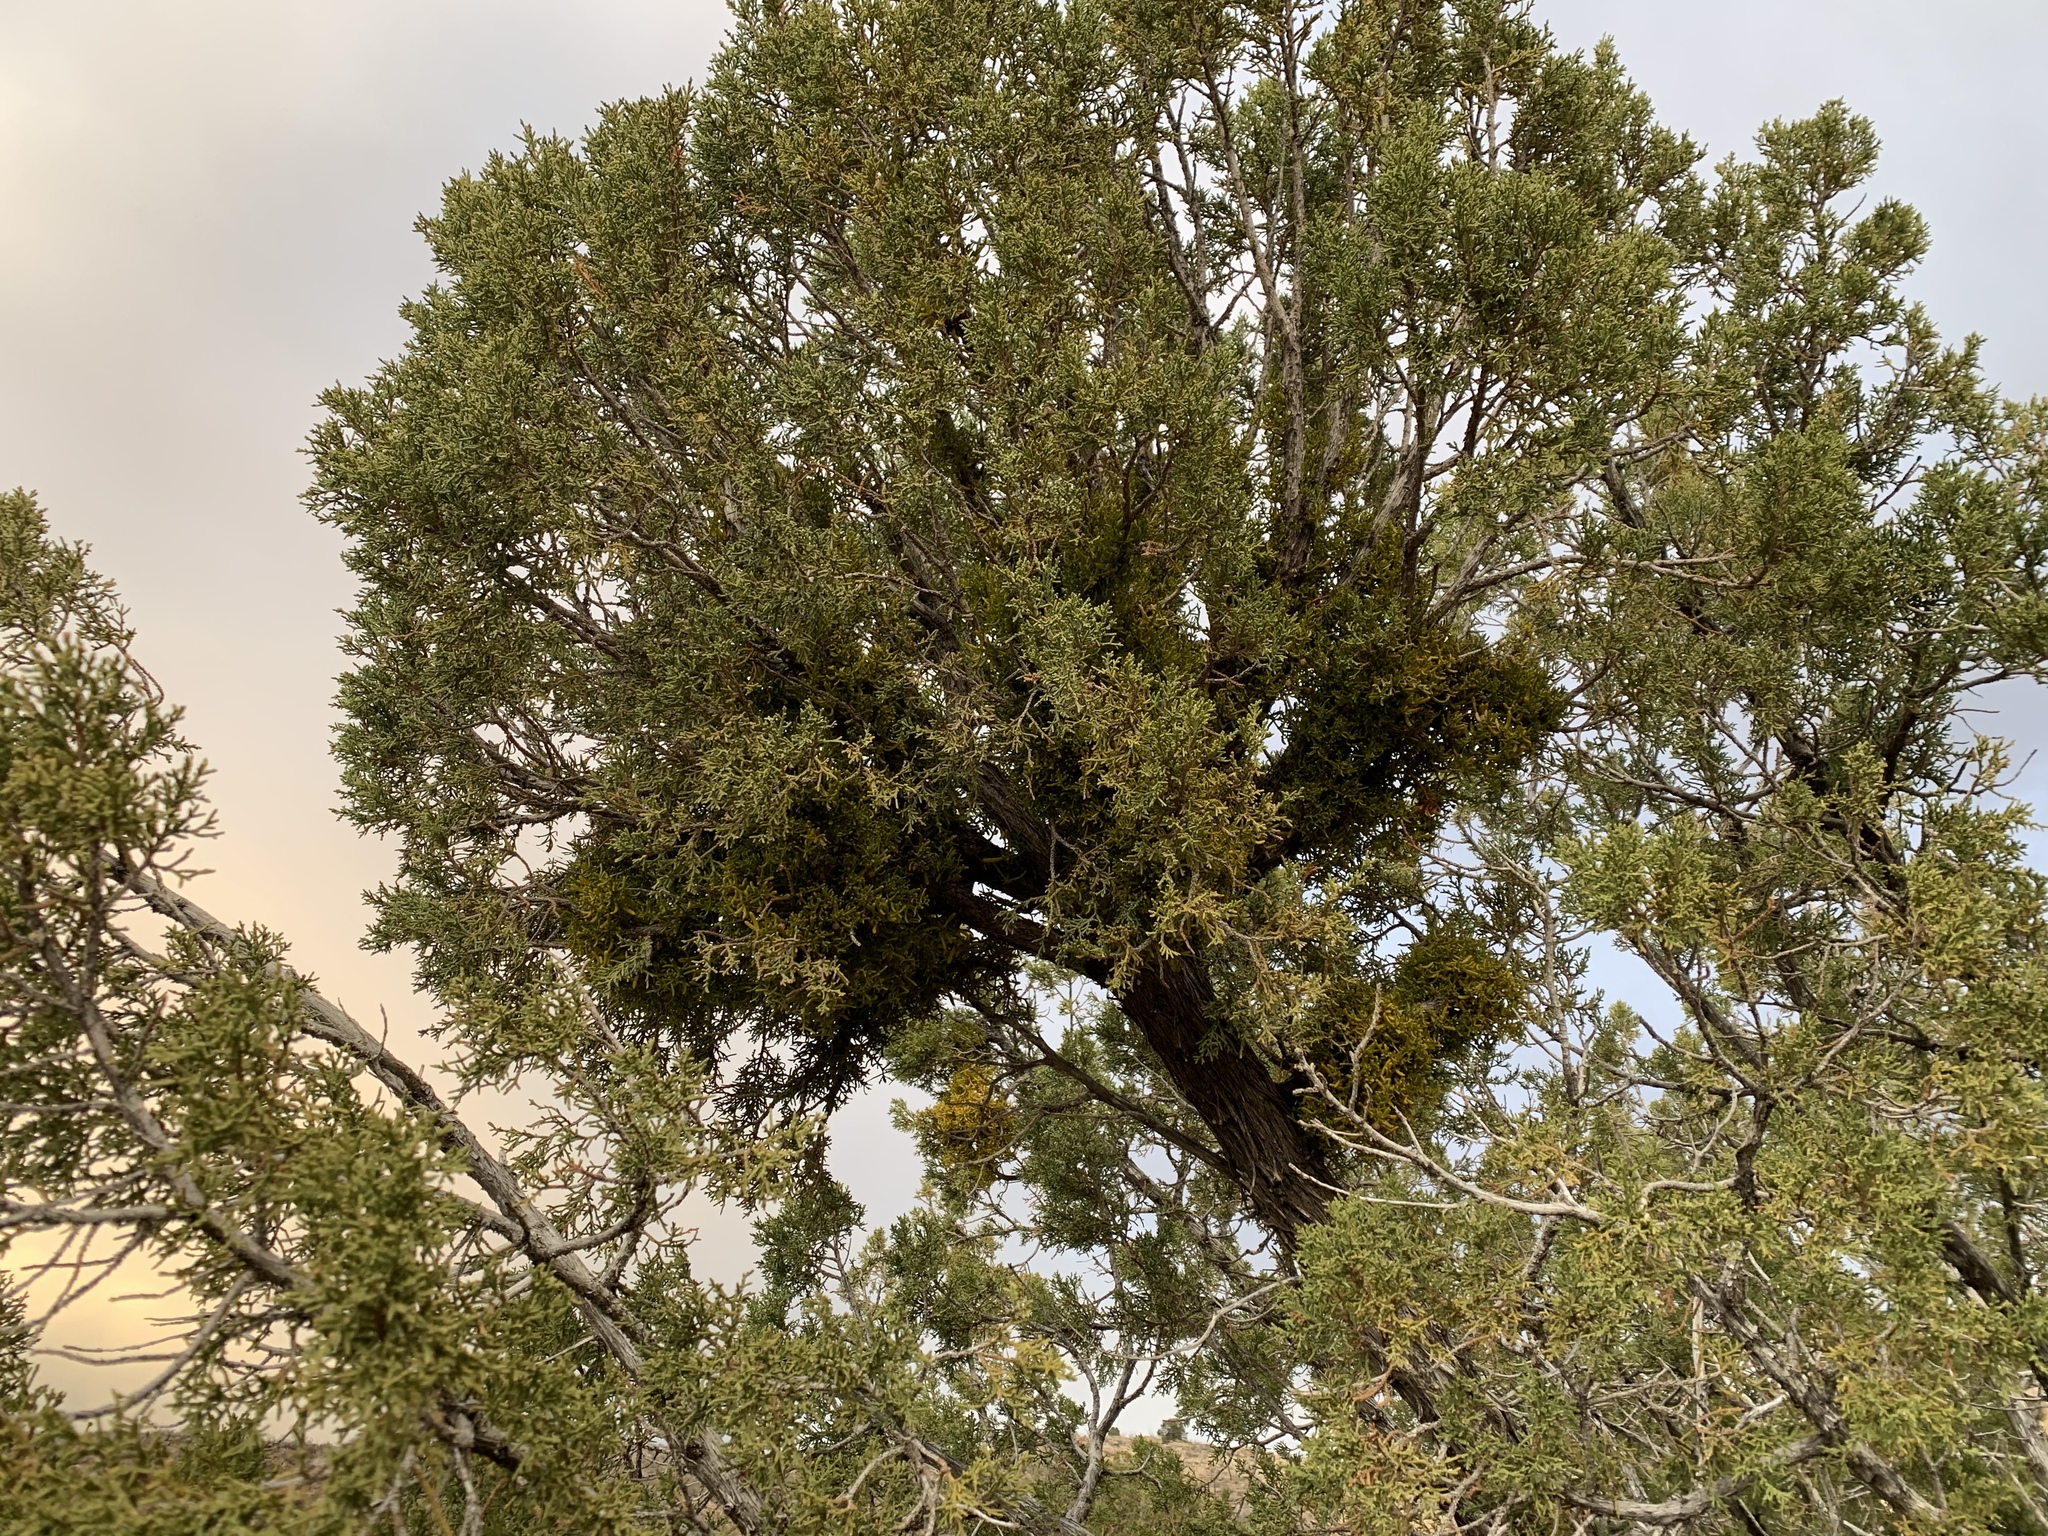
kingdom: Plantae
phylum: Tracheophyta
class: Magnoliopsida
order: Santalales
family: Viscaceae
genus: Phoradendron
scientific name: Phoradendron hawksworthii
